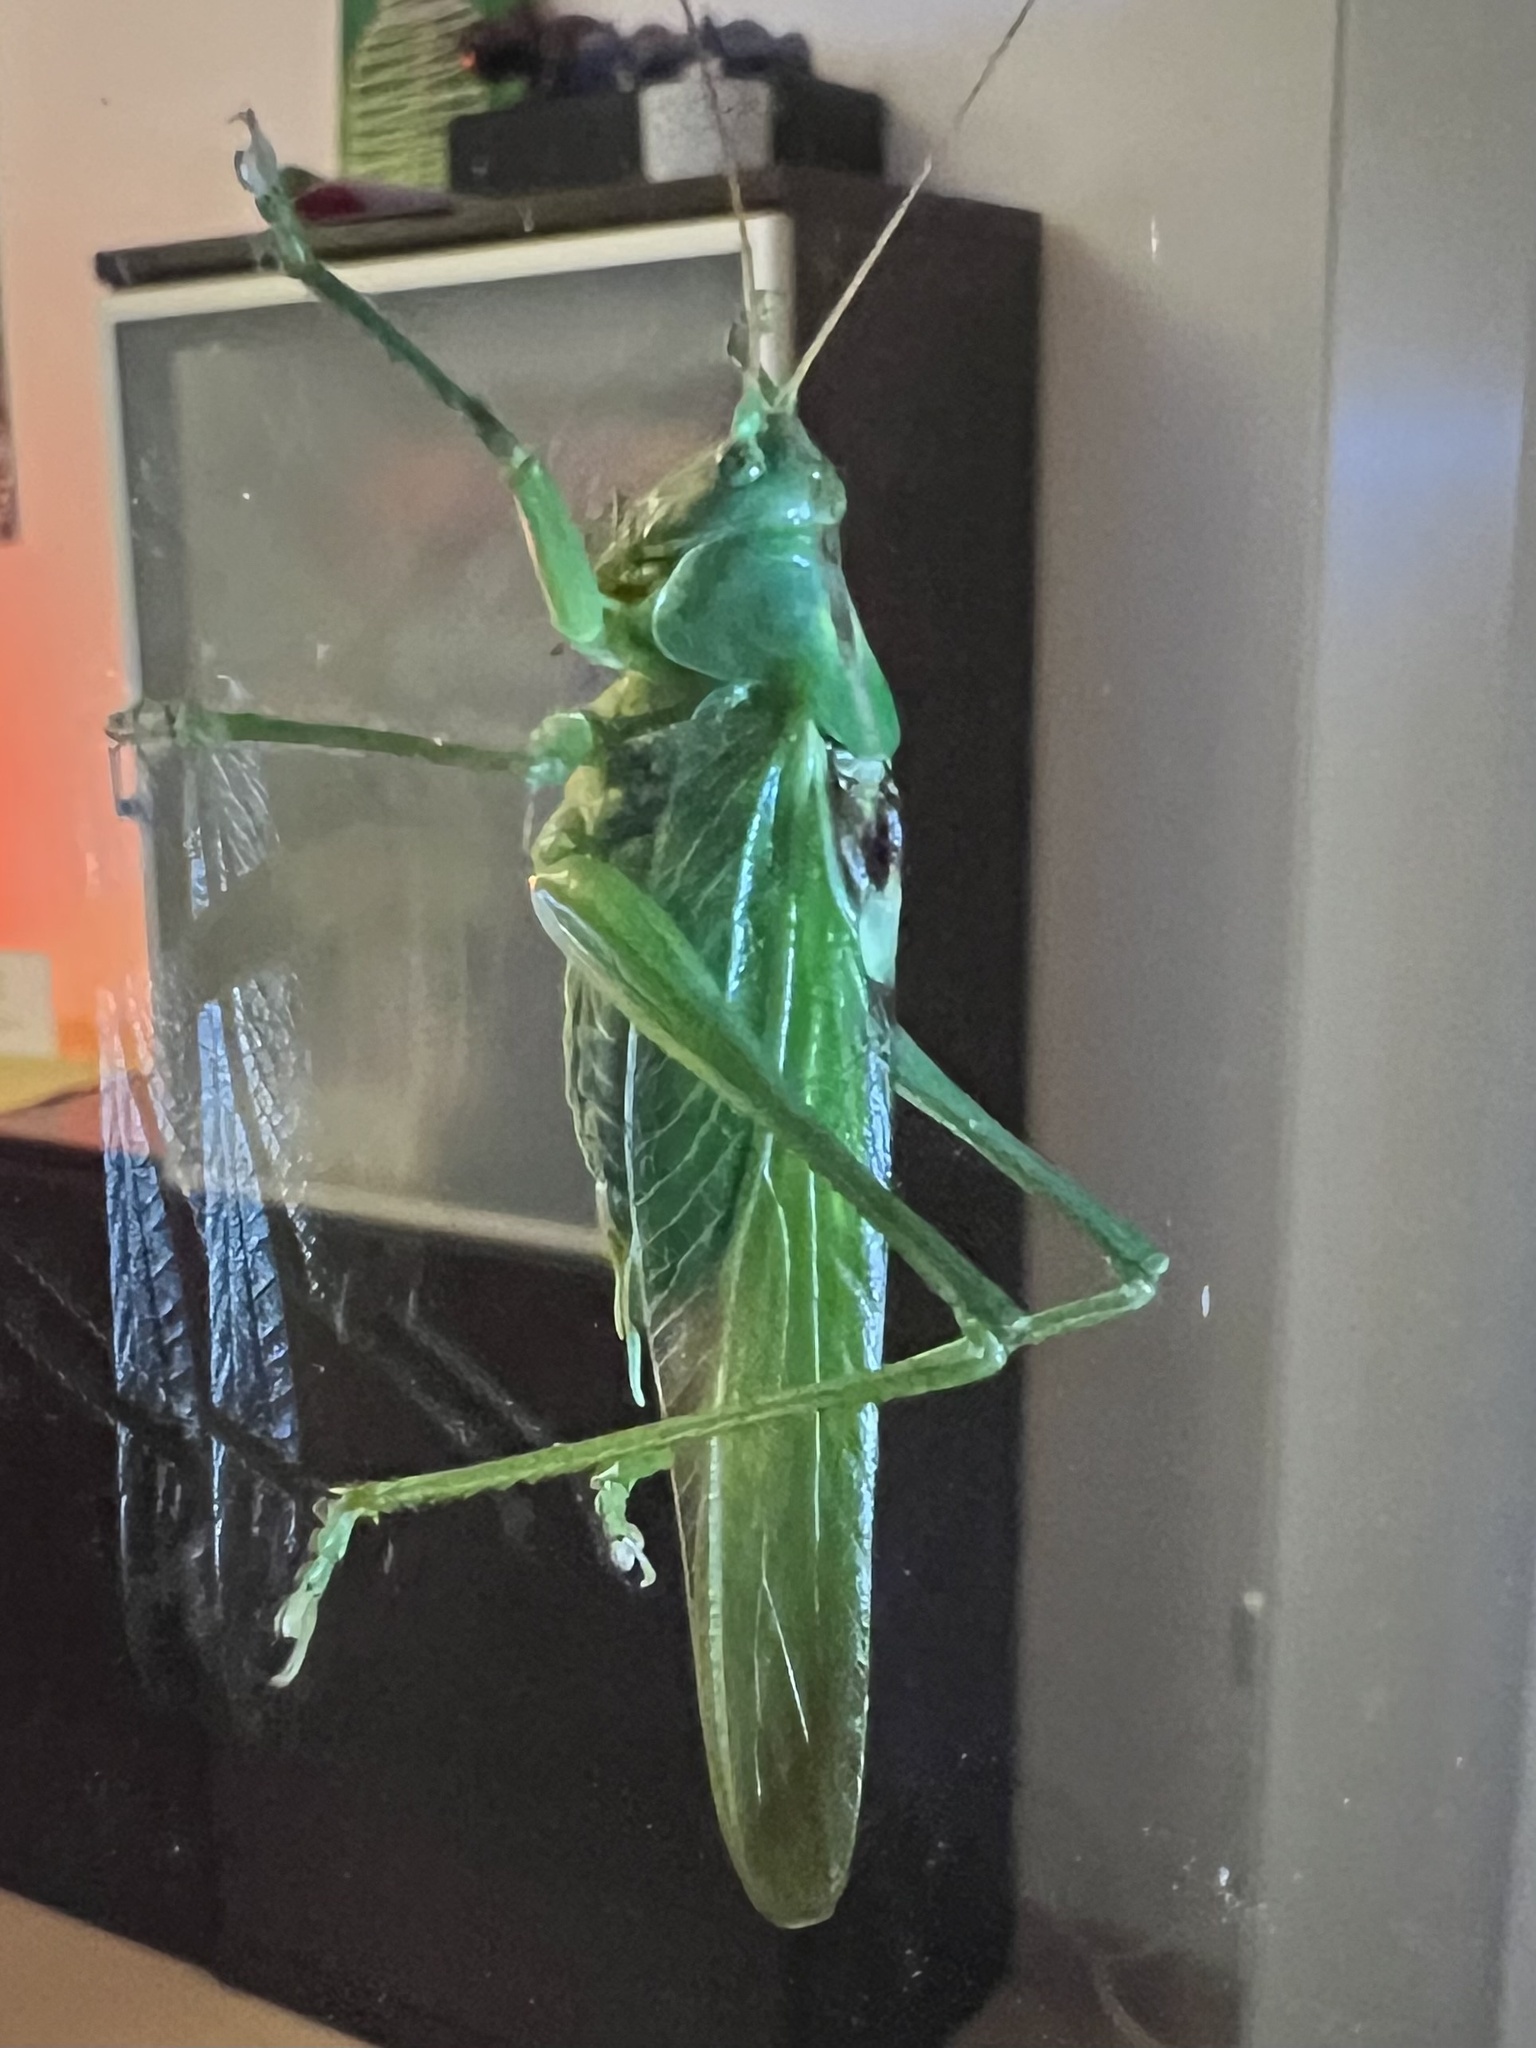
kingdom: Animalia
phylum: Arthropoda
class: Insecta
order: Orthoptera
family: Tettigoniidae
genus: Tettigonia
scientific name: Tettigonia viridissima
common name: Great green bush-cricket
